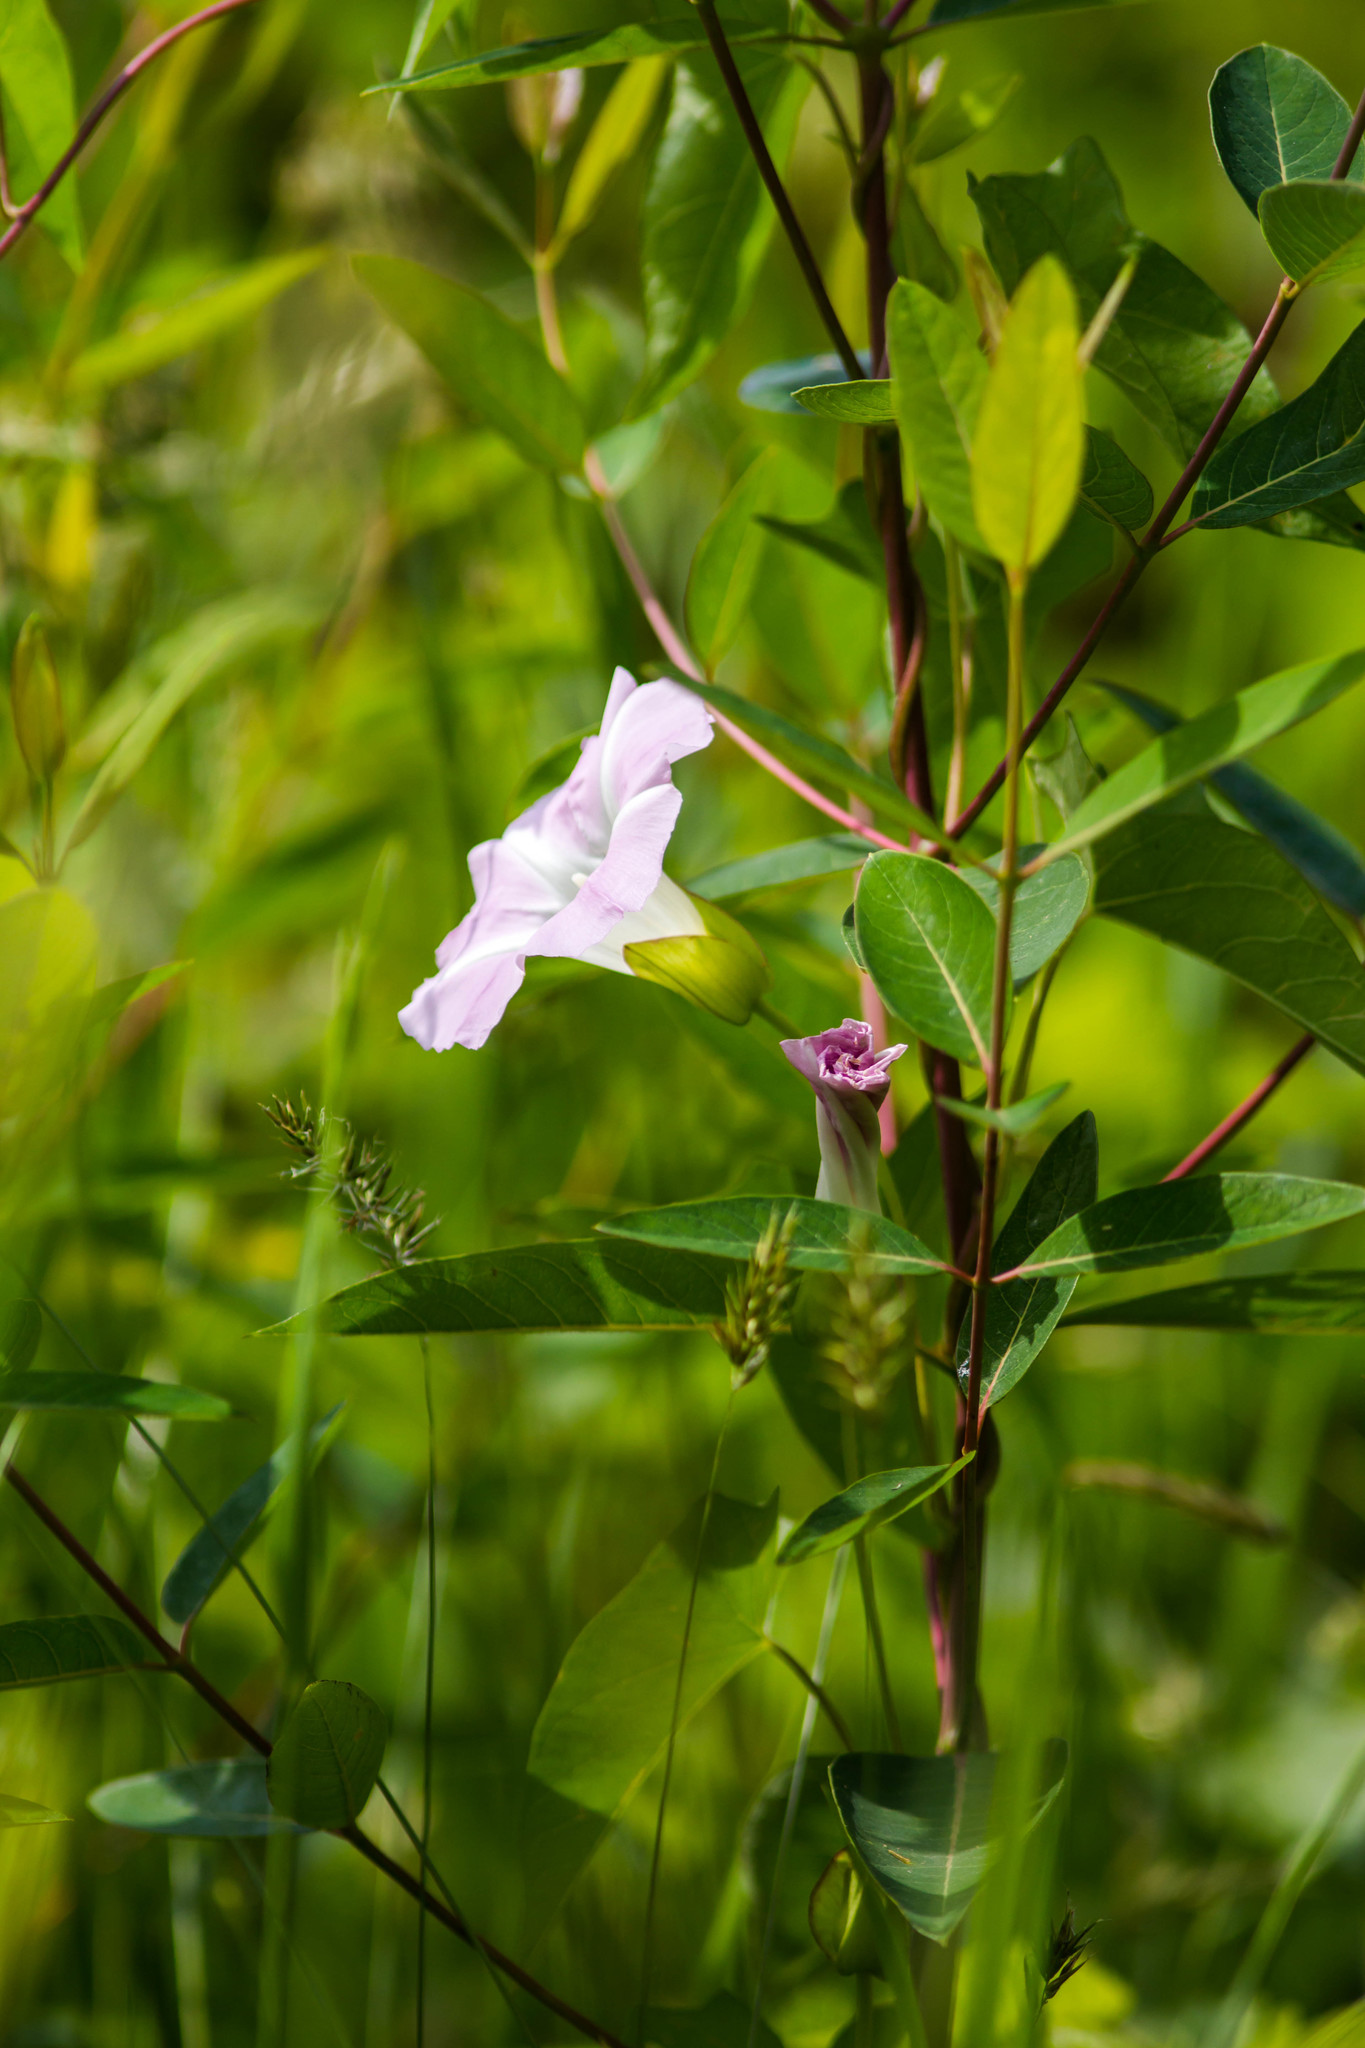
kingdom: Plantae
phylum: Tracheophyta
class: Magnoliopsida
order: Solanales
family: Convolvulaceae
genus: Calystegia
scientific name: Calystegia sepium
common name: Hedge bindweed
